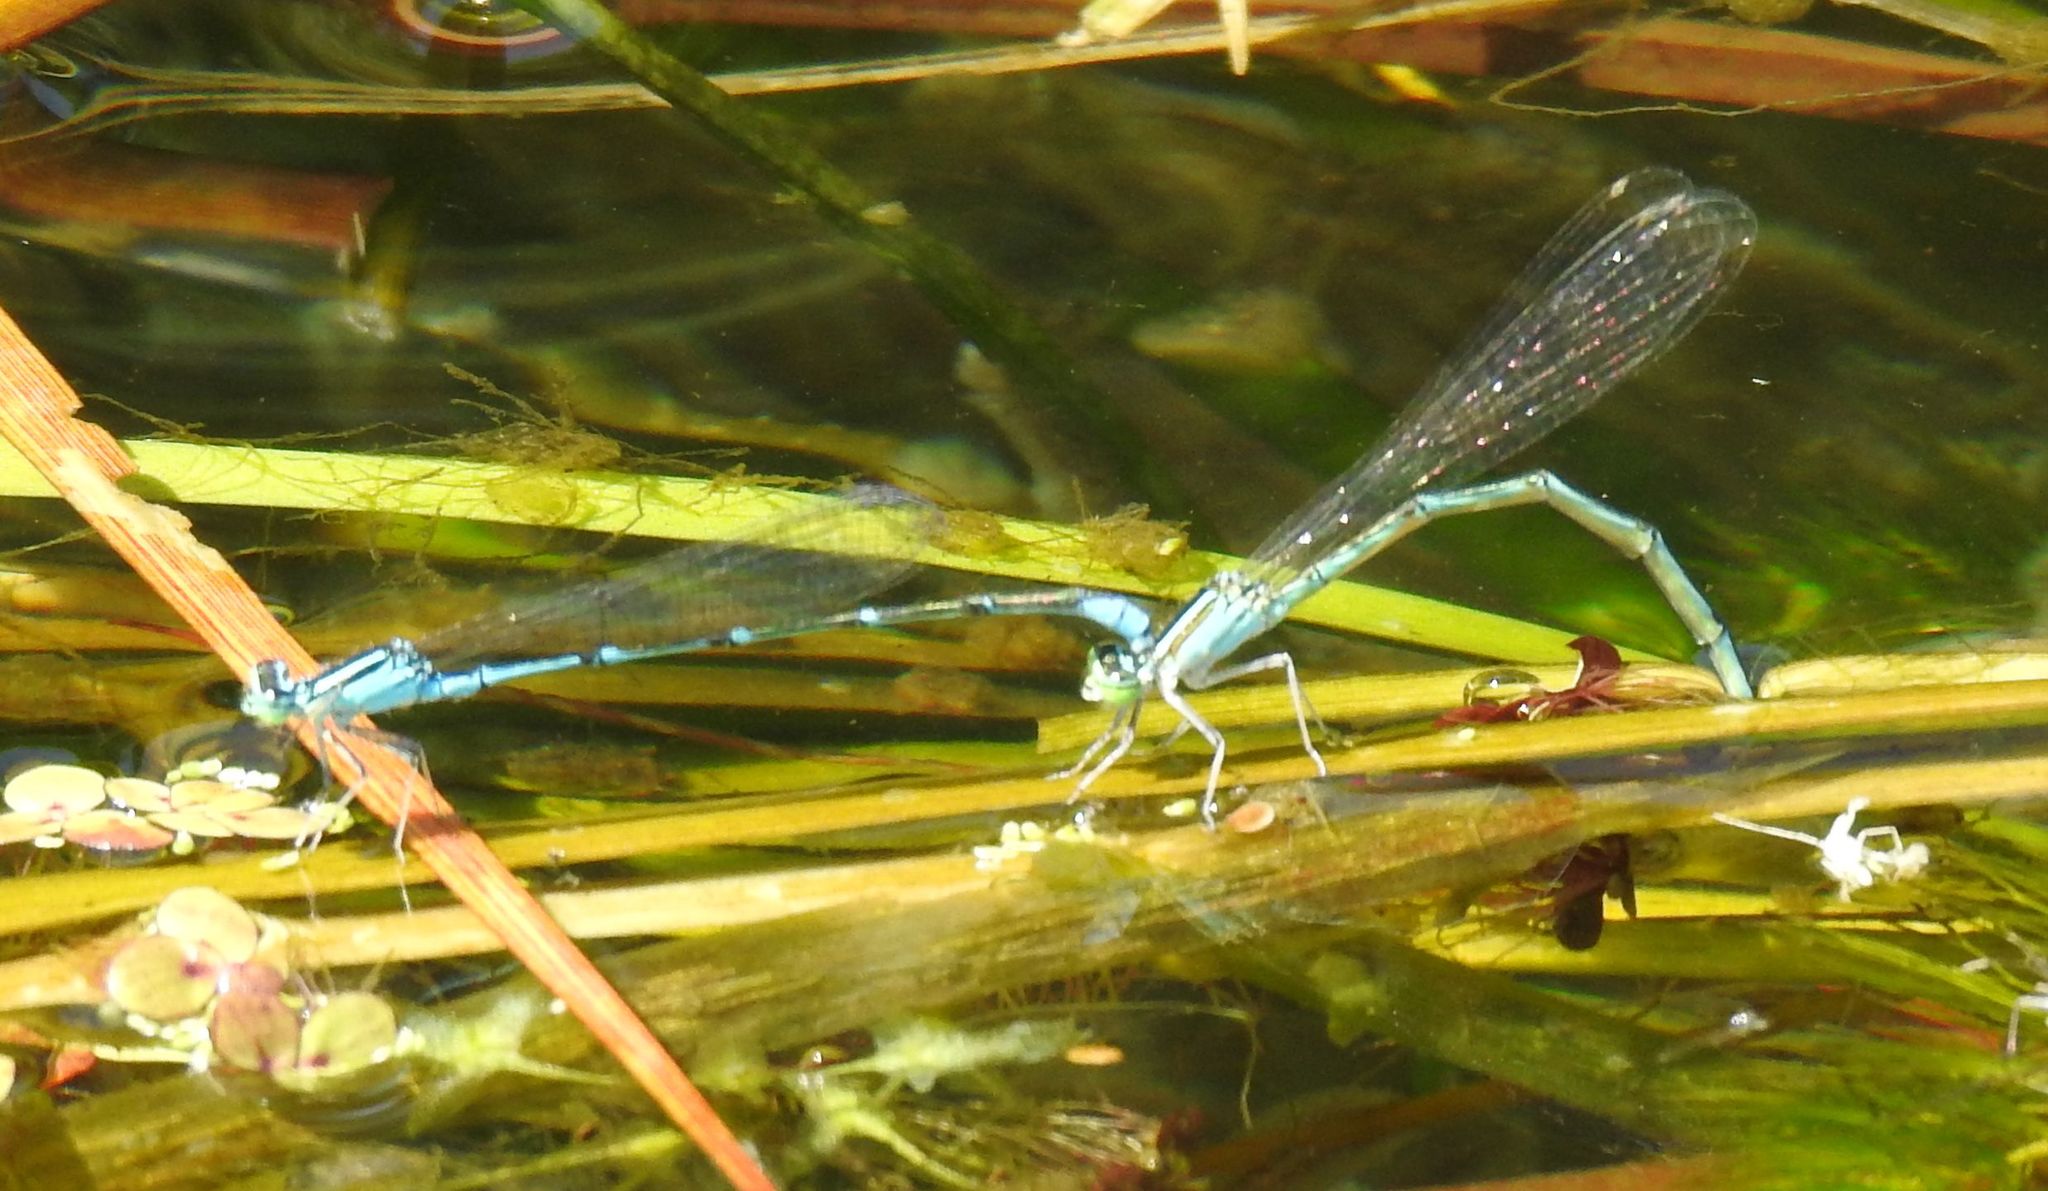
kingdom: Animalia
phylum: Arthropoda
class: Insecta
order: Odonata
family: Coenagrionidae
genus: Enallagma
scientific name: Enallagma exsulans
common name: Stream bluet
